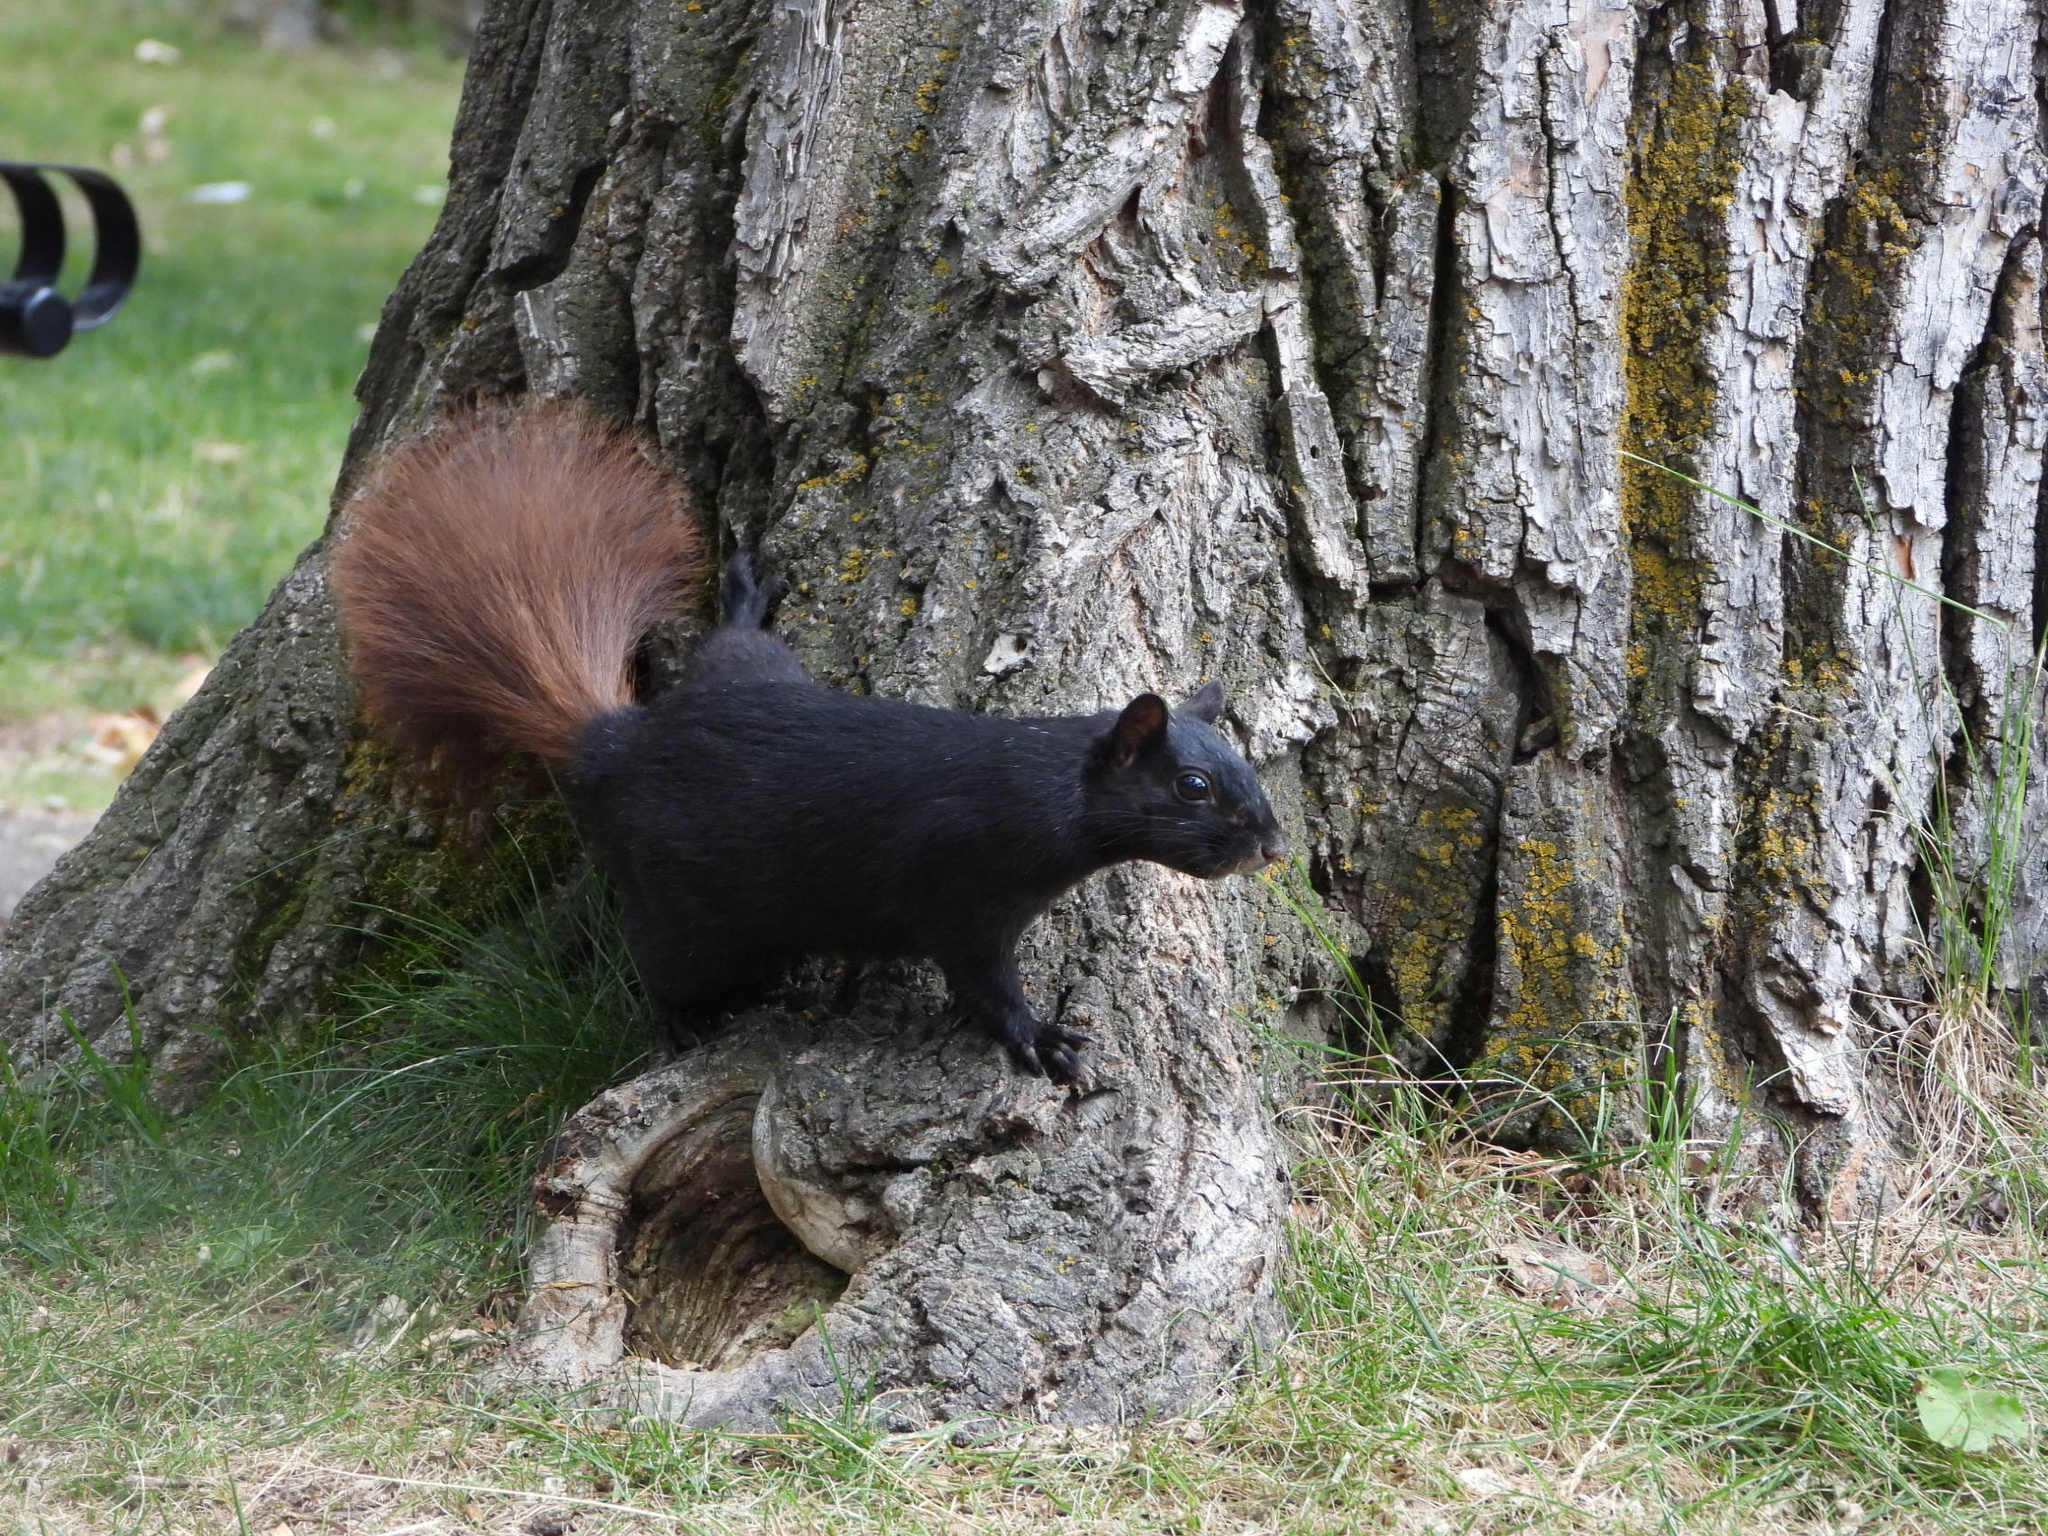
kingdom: Animalia
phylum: Chordata
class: Mammalia
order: Rodentia
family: Sciuridae
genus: Sciurus
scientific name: Sciurus carolinensis
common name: Eastern gray squirrel
